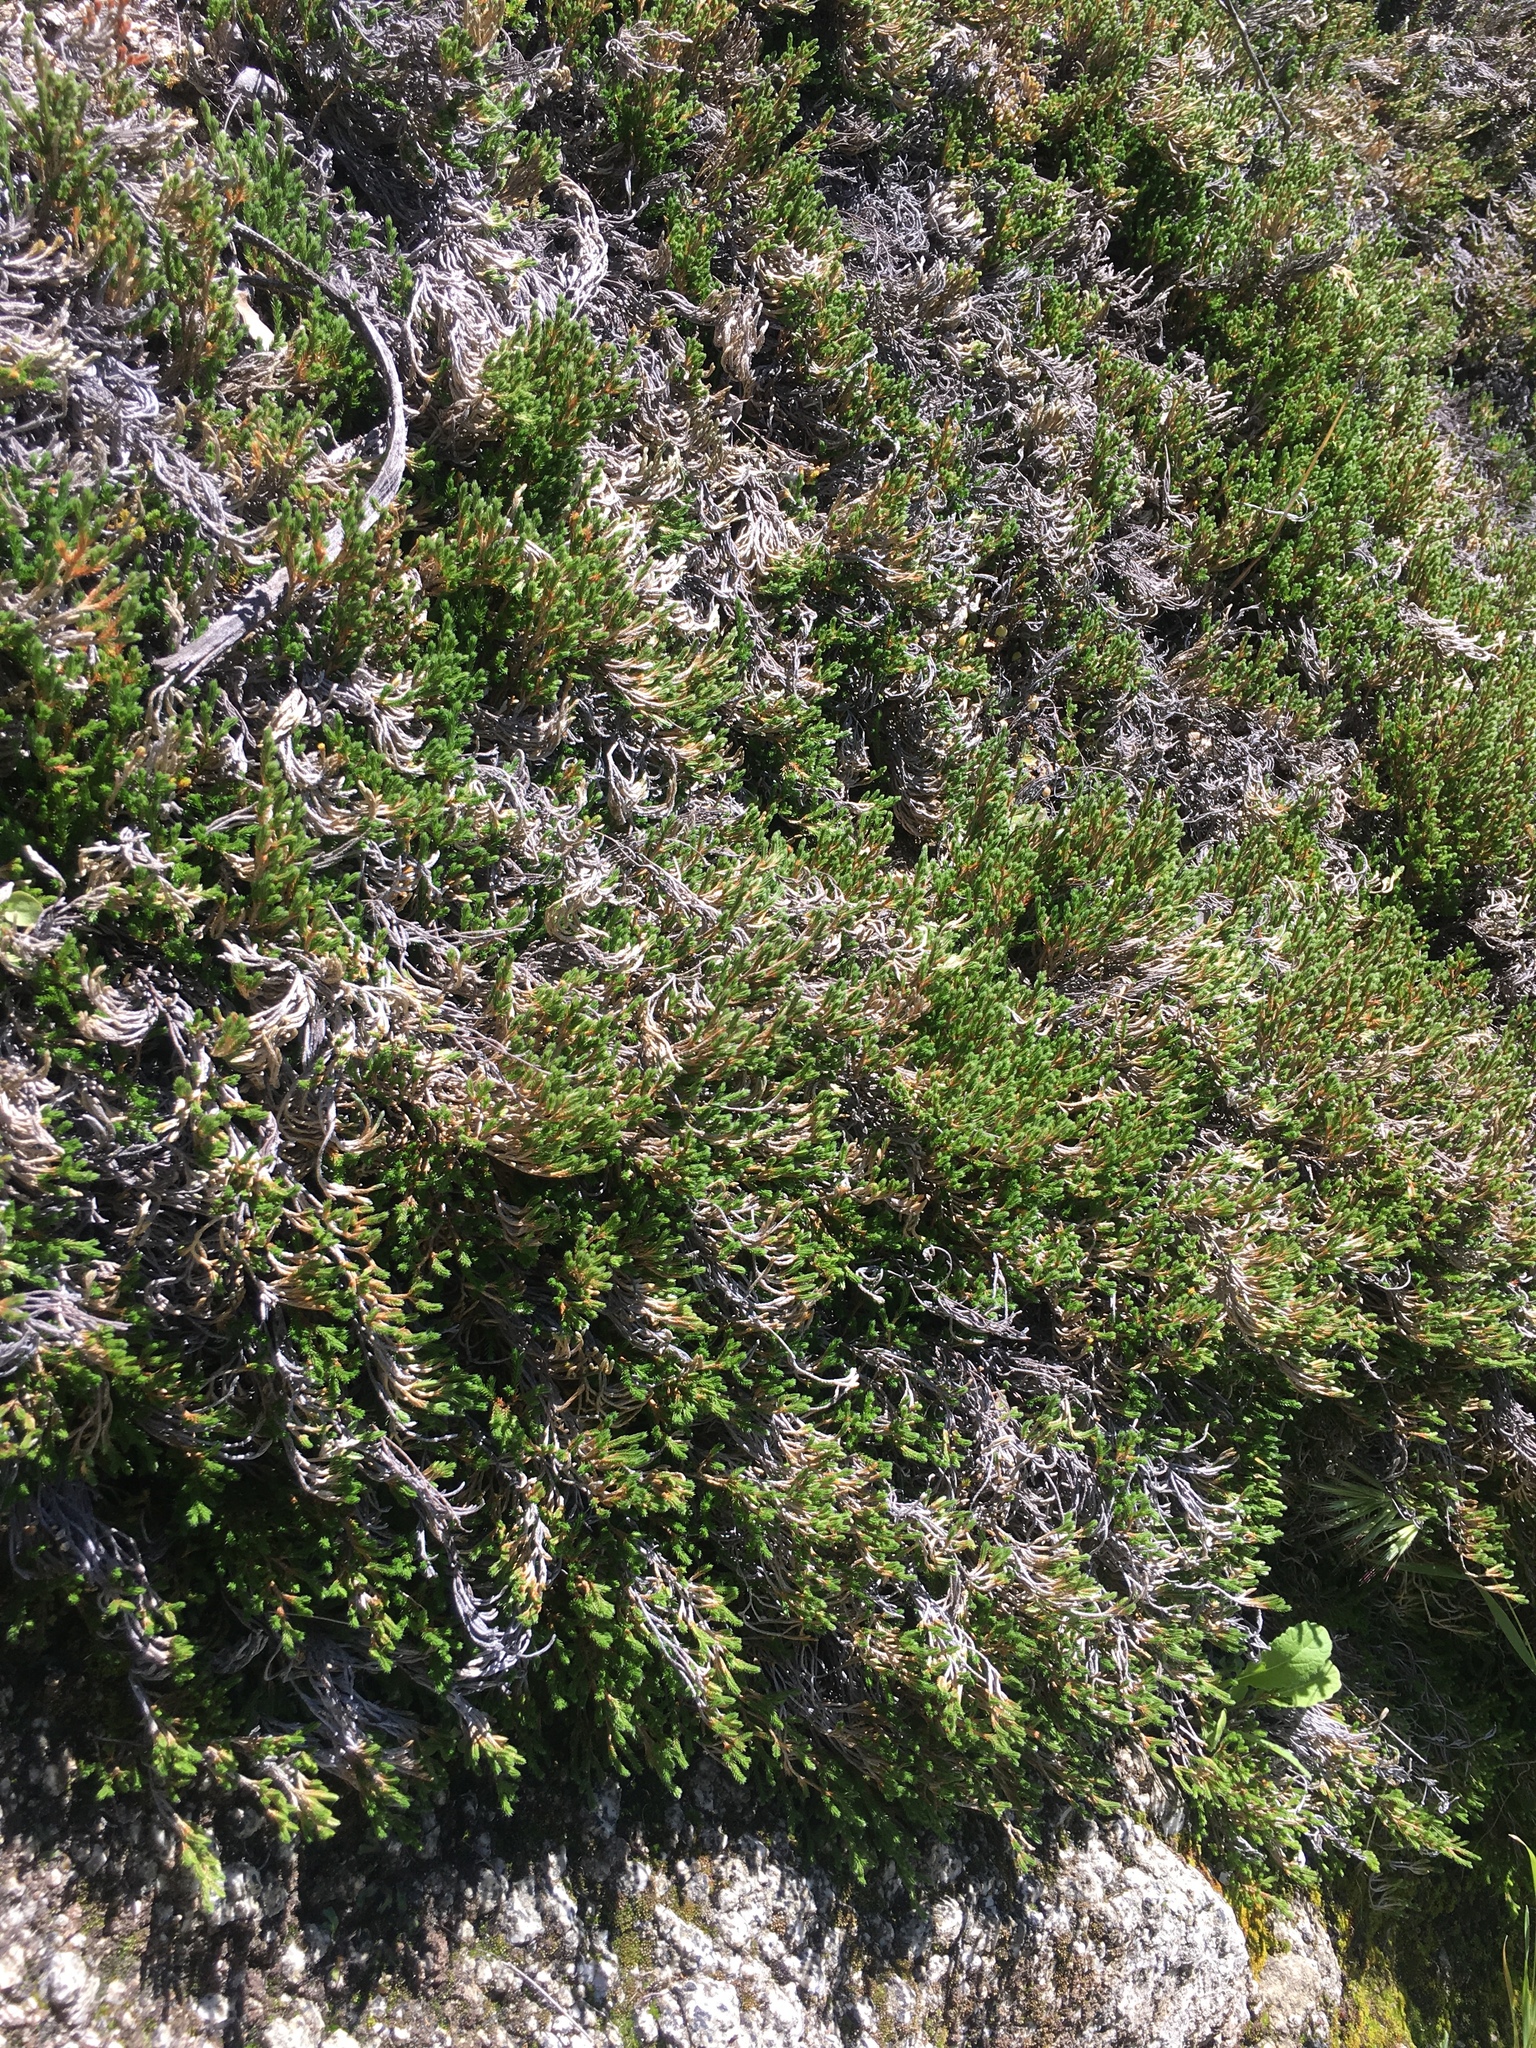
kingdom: Plantae
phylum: Tracheophyta
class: Lycopodiopsida
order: Selaginellales
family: Selaginellaceae
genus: Selaginella
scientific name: Selaginella bigelovii
